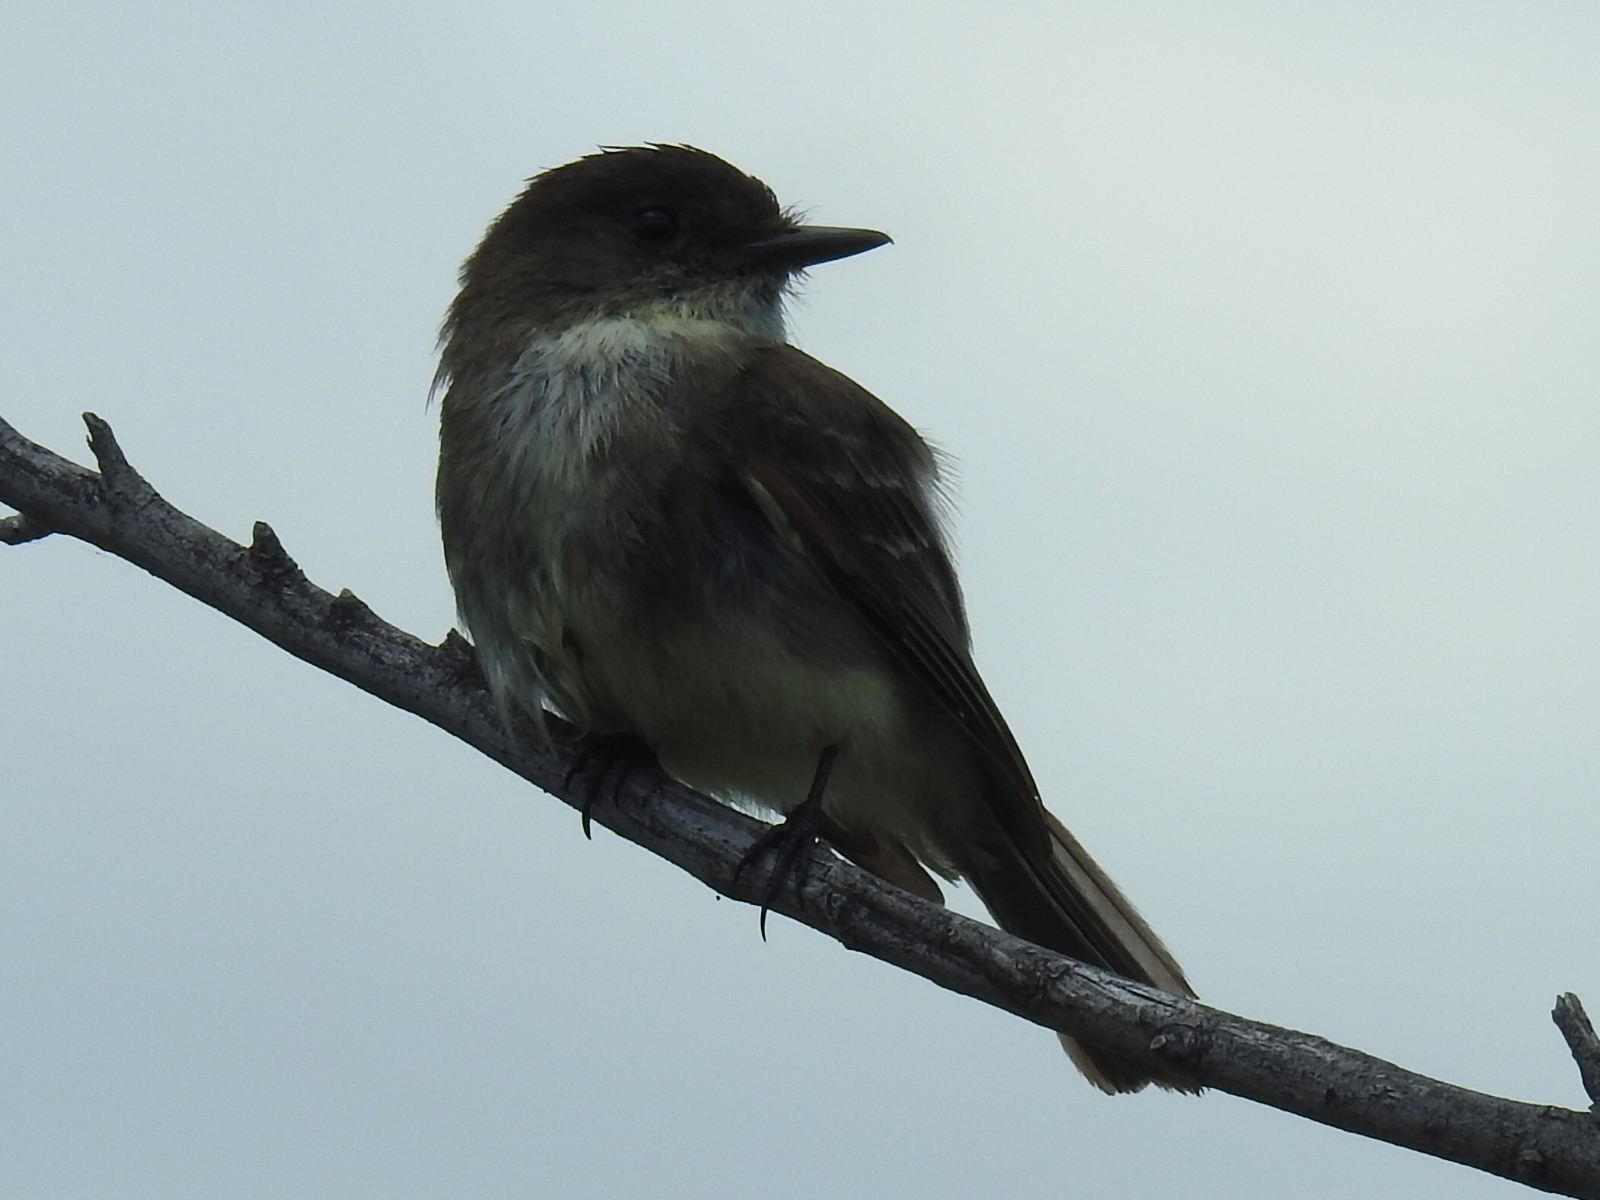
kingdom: Animalia
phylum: Chordata
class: Aves
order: Passeriformes
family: Tyrannidae
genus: Sayornis
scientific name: Sayornis phoebe
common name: Eastern phoebe
